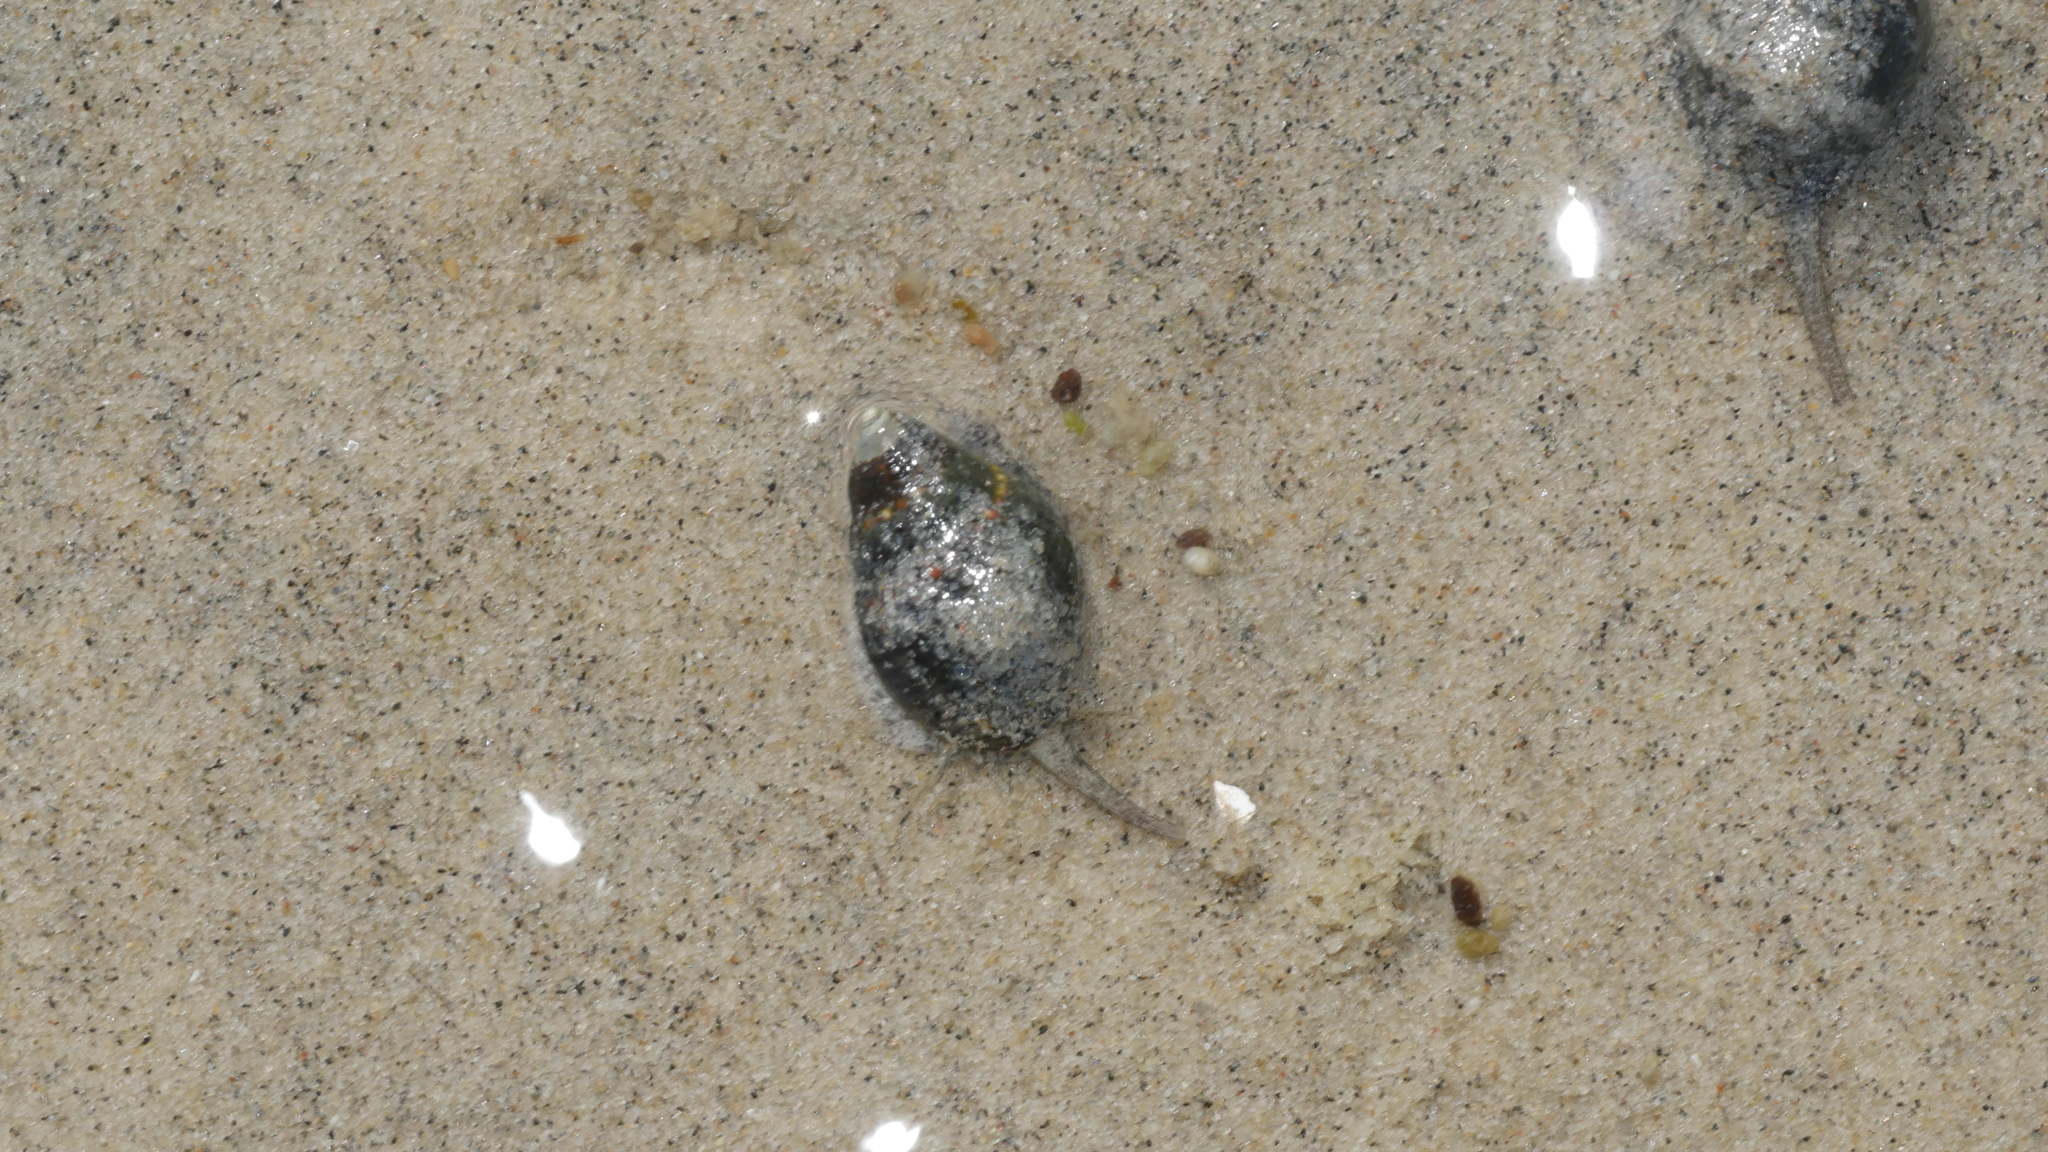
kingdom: Animalia
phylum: Mollusca
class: Gastropoda
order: Neogastropoda
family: Nassariidae
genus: Ilyanassa
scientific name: Ilyanassa obsoleta
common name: Eastern mudsnail
